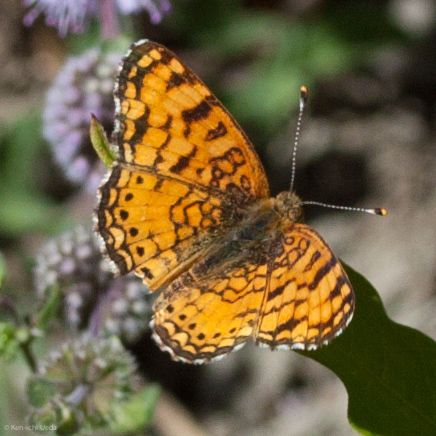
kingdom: Animalia
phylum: Arthropoda
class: Insecta
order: Lepidoptera
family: Nymphalidae
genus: Eresia
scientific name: Eresia aveyrona
